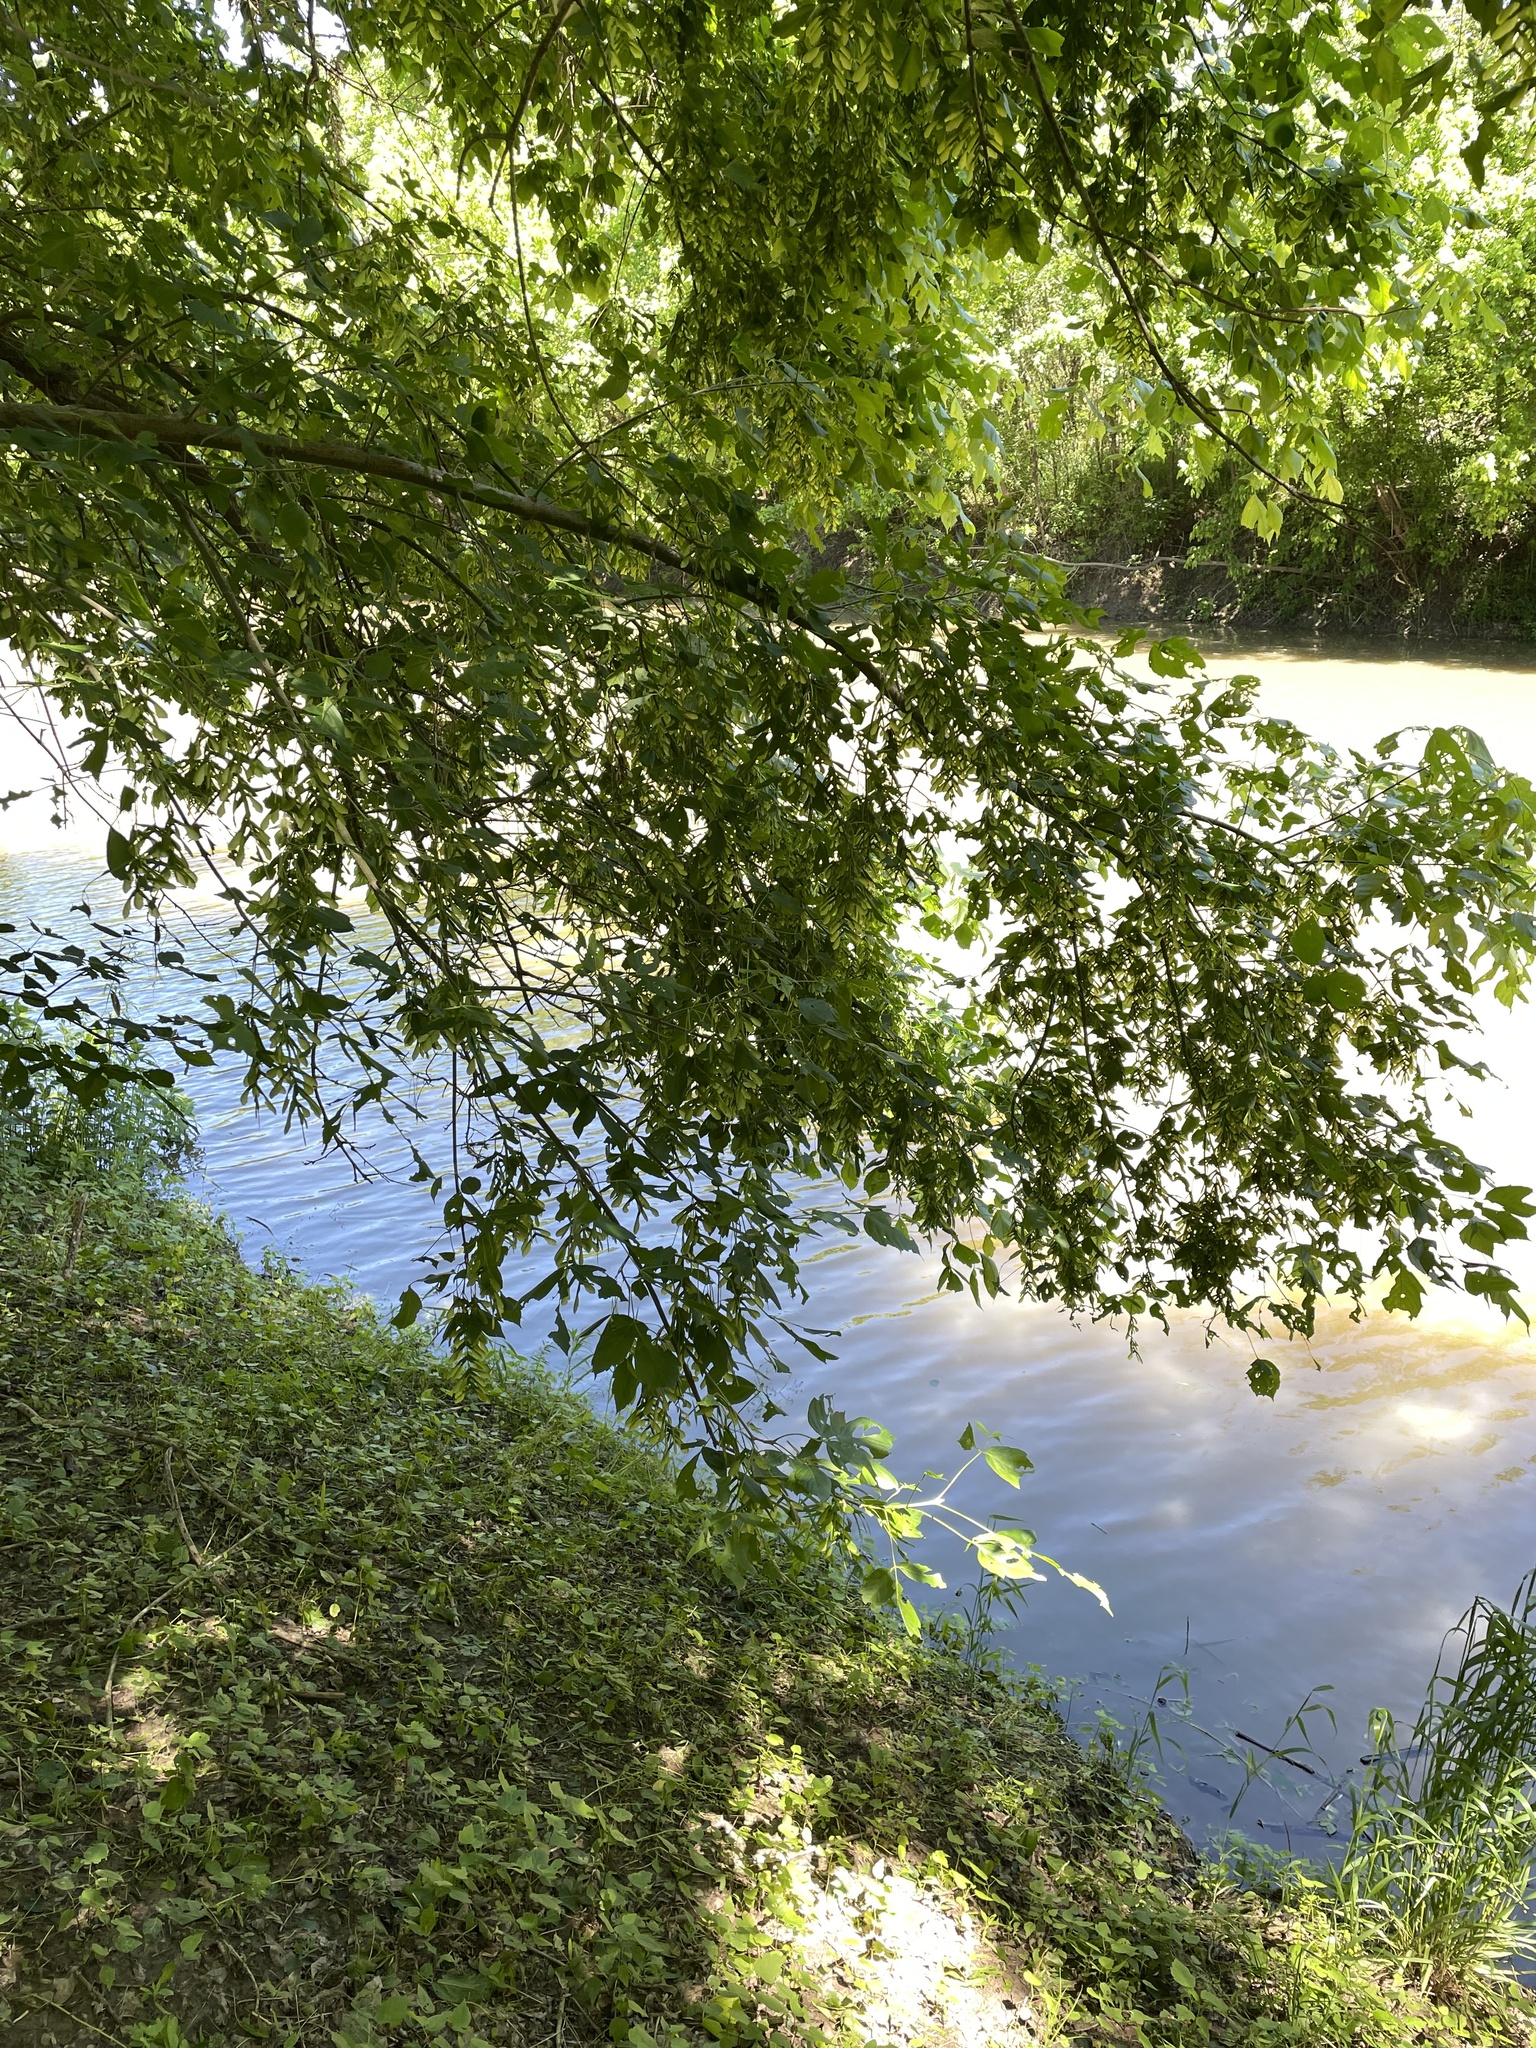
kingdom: Plantae
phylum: Tracheophyta
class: Magnoliopsida
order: Sapindales
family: Sapindaceae
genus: Acer
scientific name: Acer negundo
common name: Ashleaf maple
